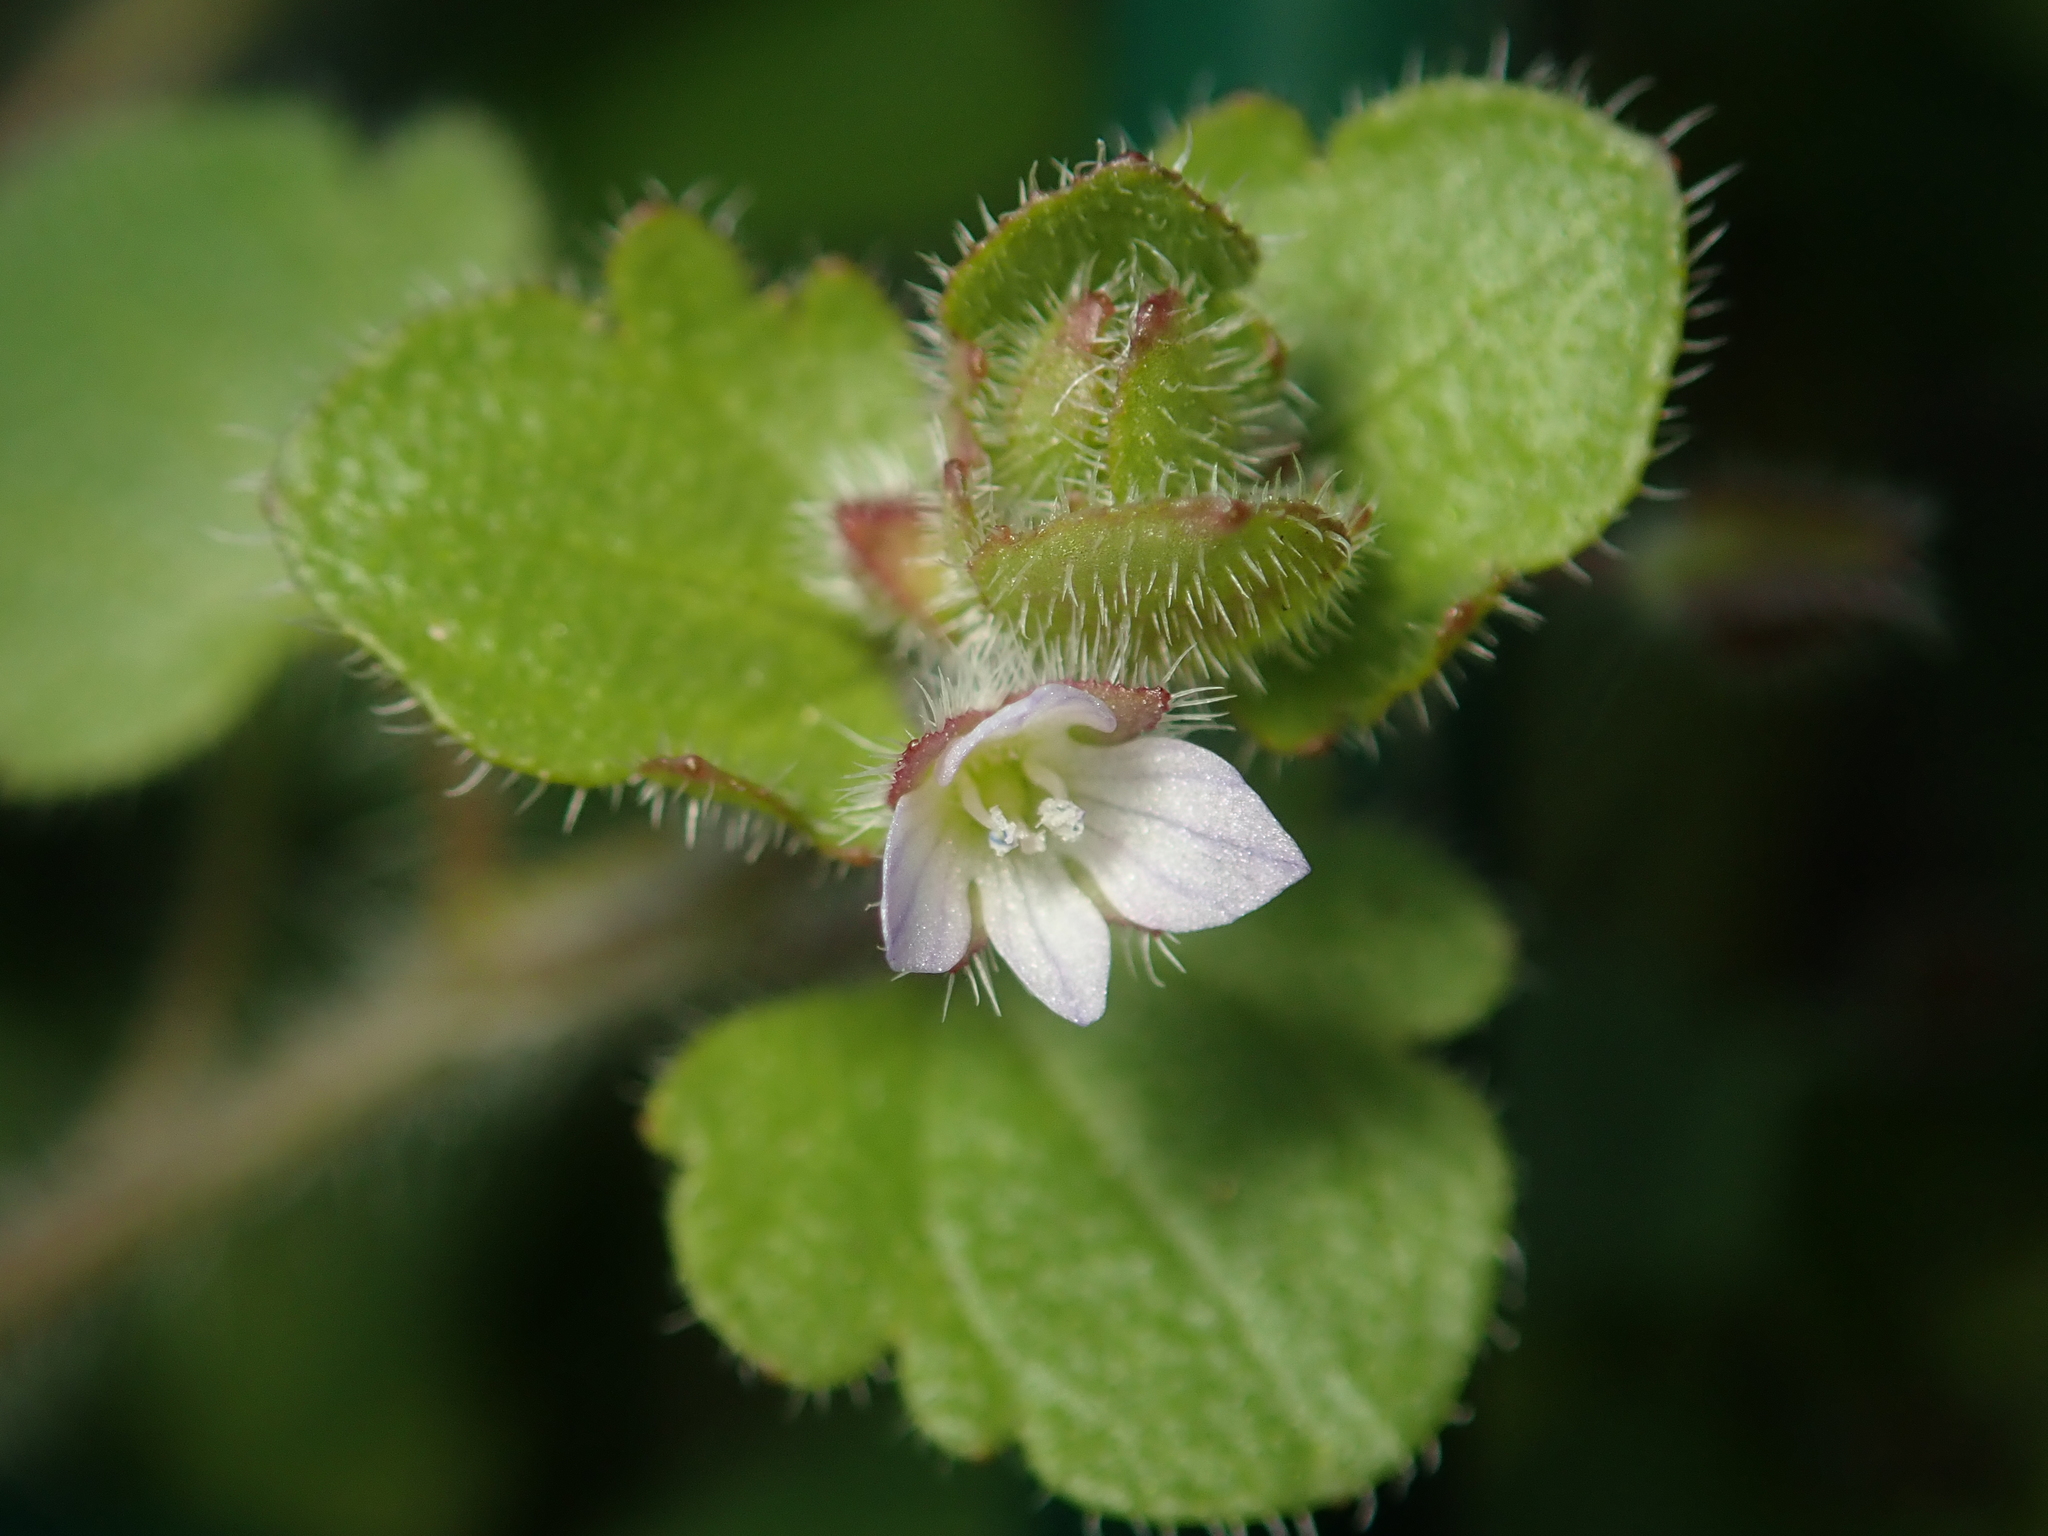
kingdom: Plantae
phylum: Tracheophyta
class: Magnoliopsida
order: Lamiales
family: Plantaginaceae
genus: Veronica
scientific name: Veronica sublobata
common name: False ivy-leaved speedwell
